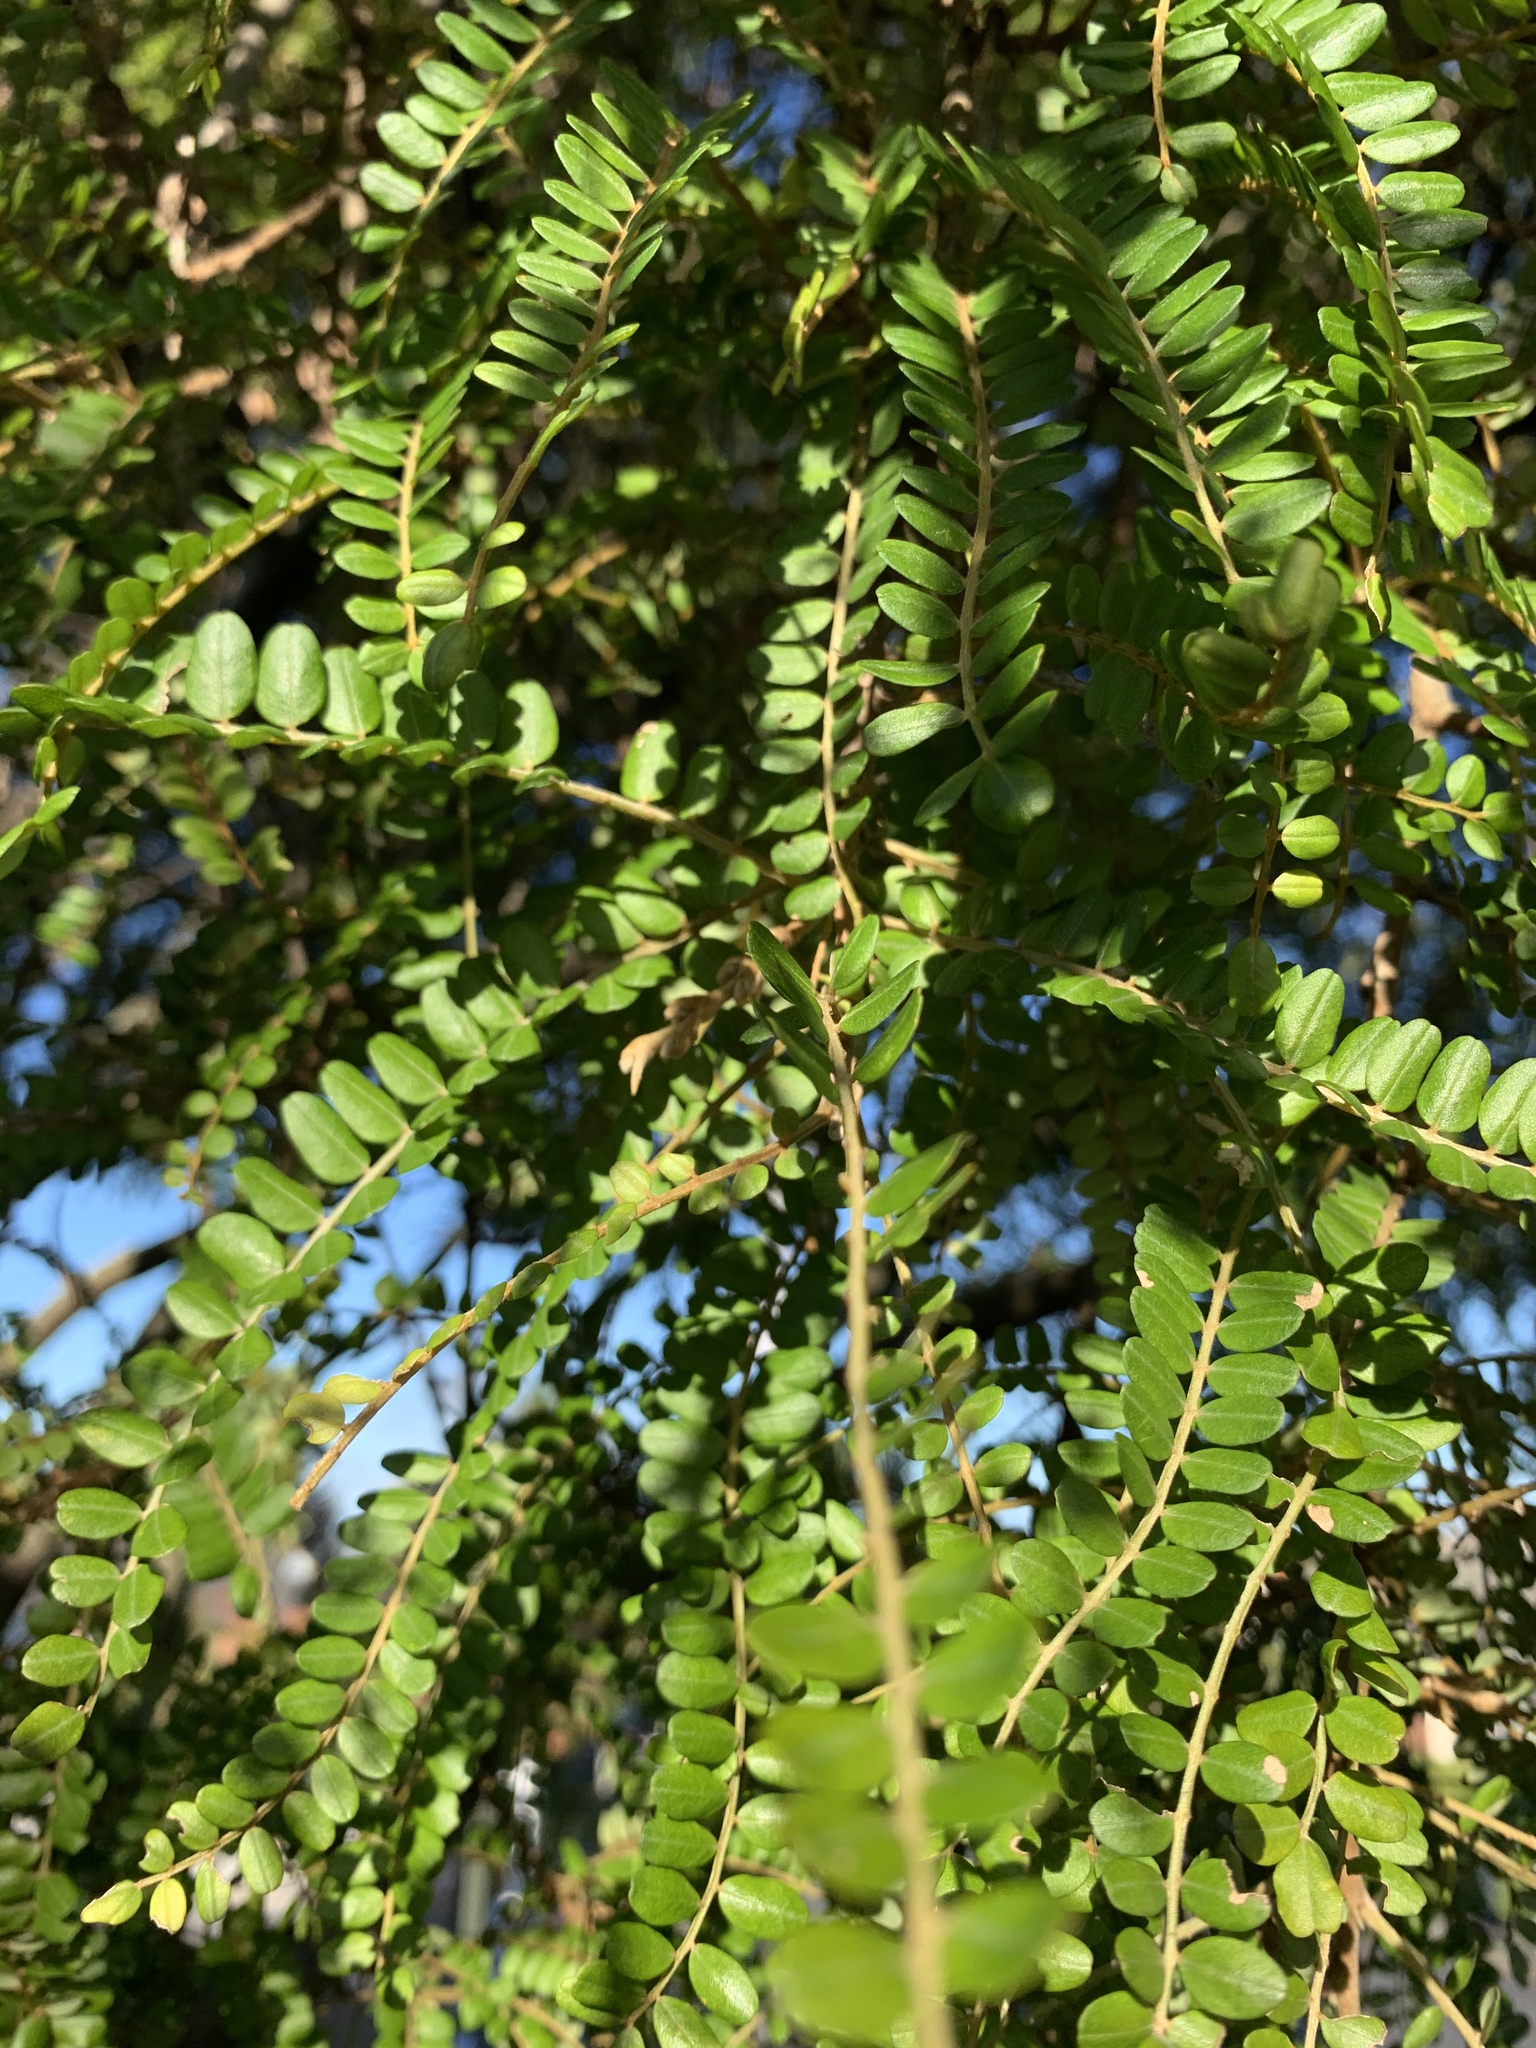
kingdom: Plantae
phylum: Tracheophyta
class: Magnoliopsida
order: Fabales
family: Fabaceae
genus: Sophora
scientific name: Sophora microphylla
